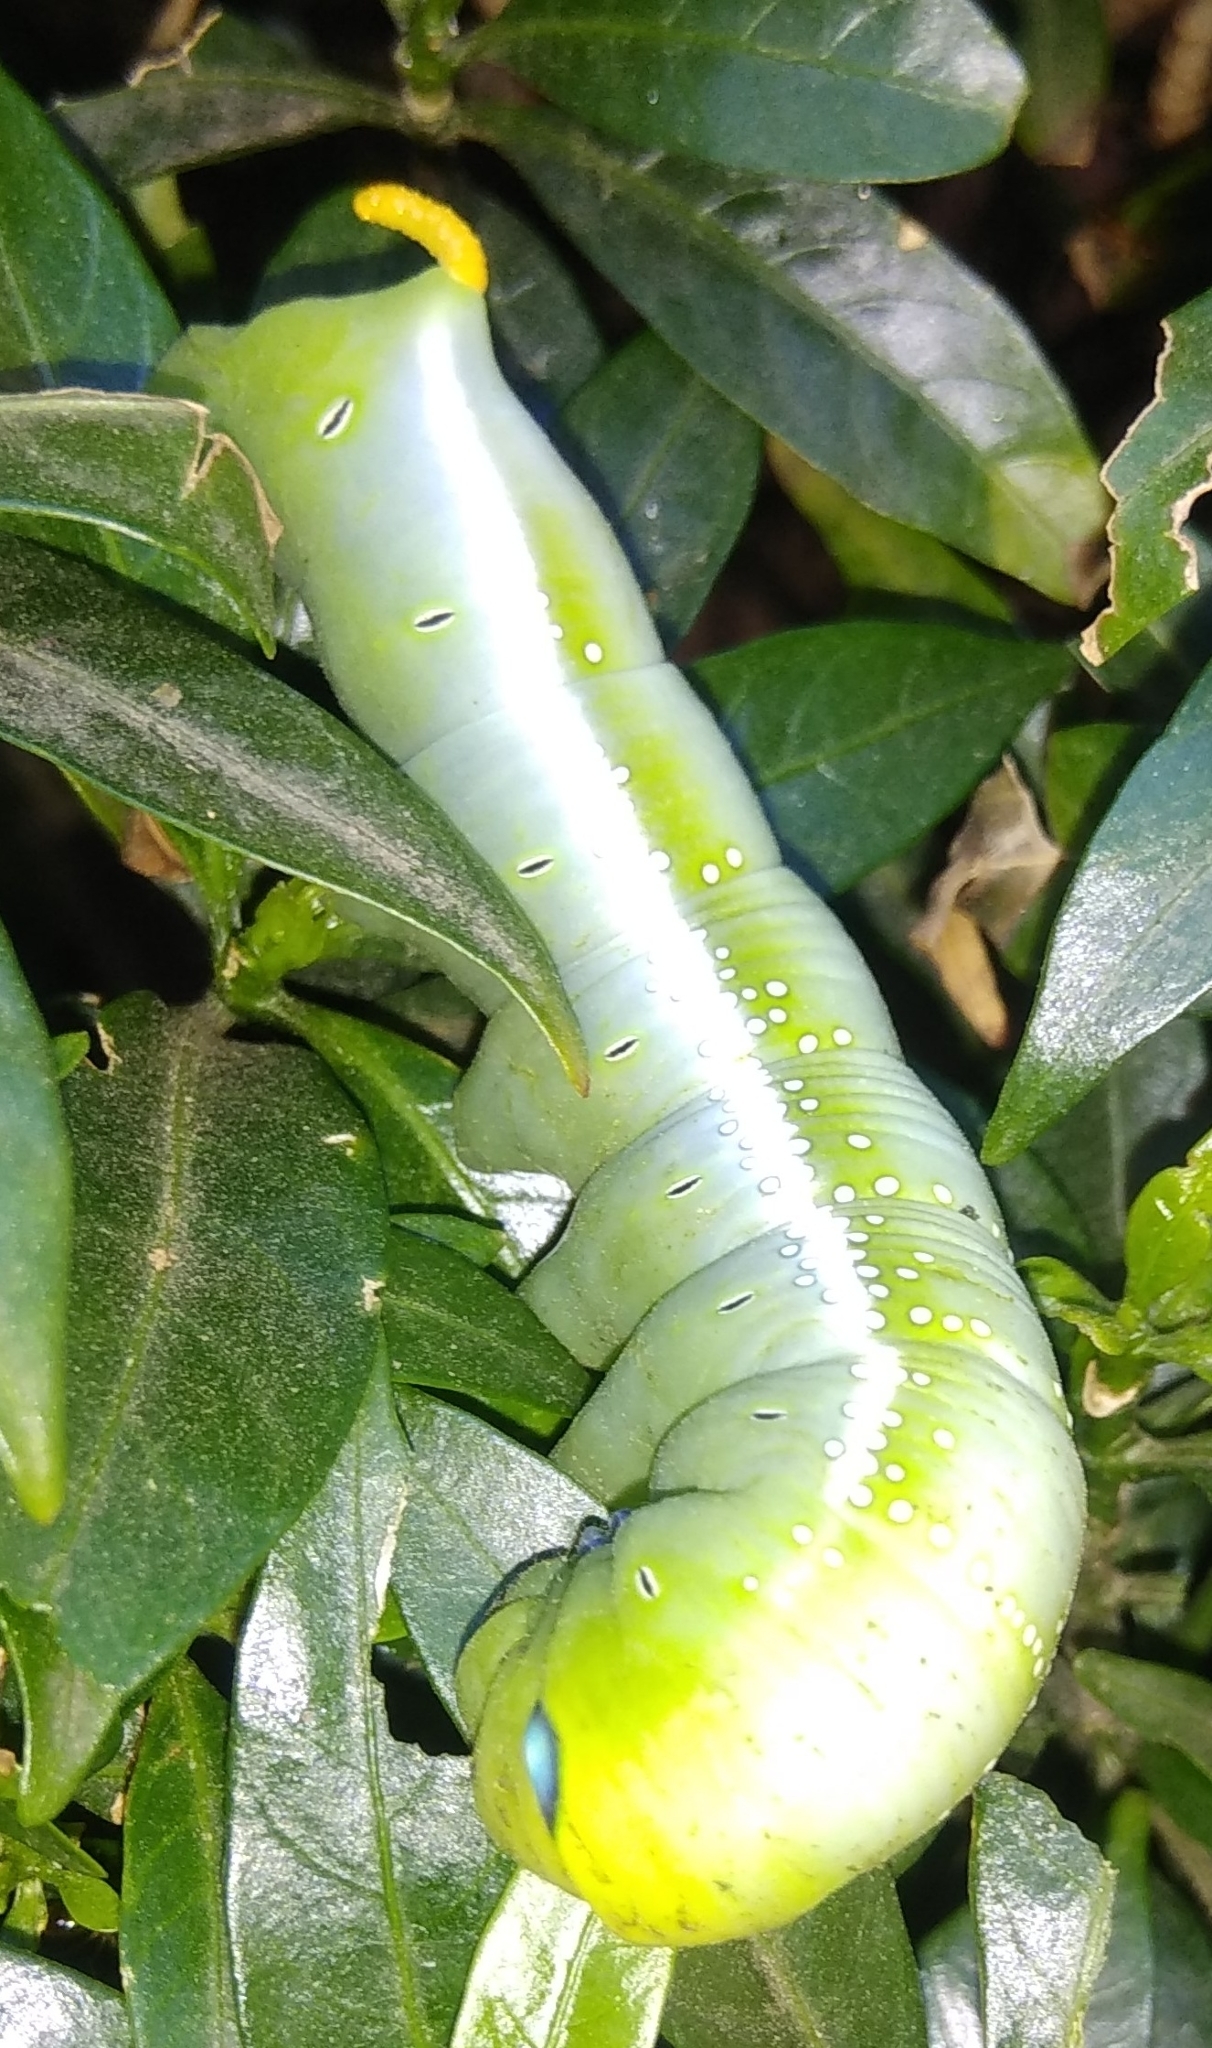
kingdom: Animalia
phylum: Arthropoda
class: Insecta
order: Lepidoptera
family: Sphingidae
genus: Daphnis
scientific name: Daphnis nerii
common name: Oleander hawk-moth
